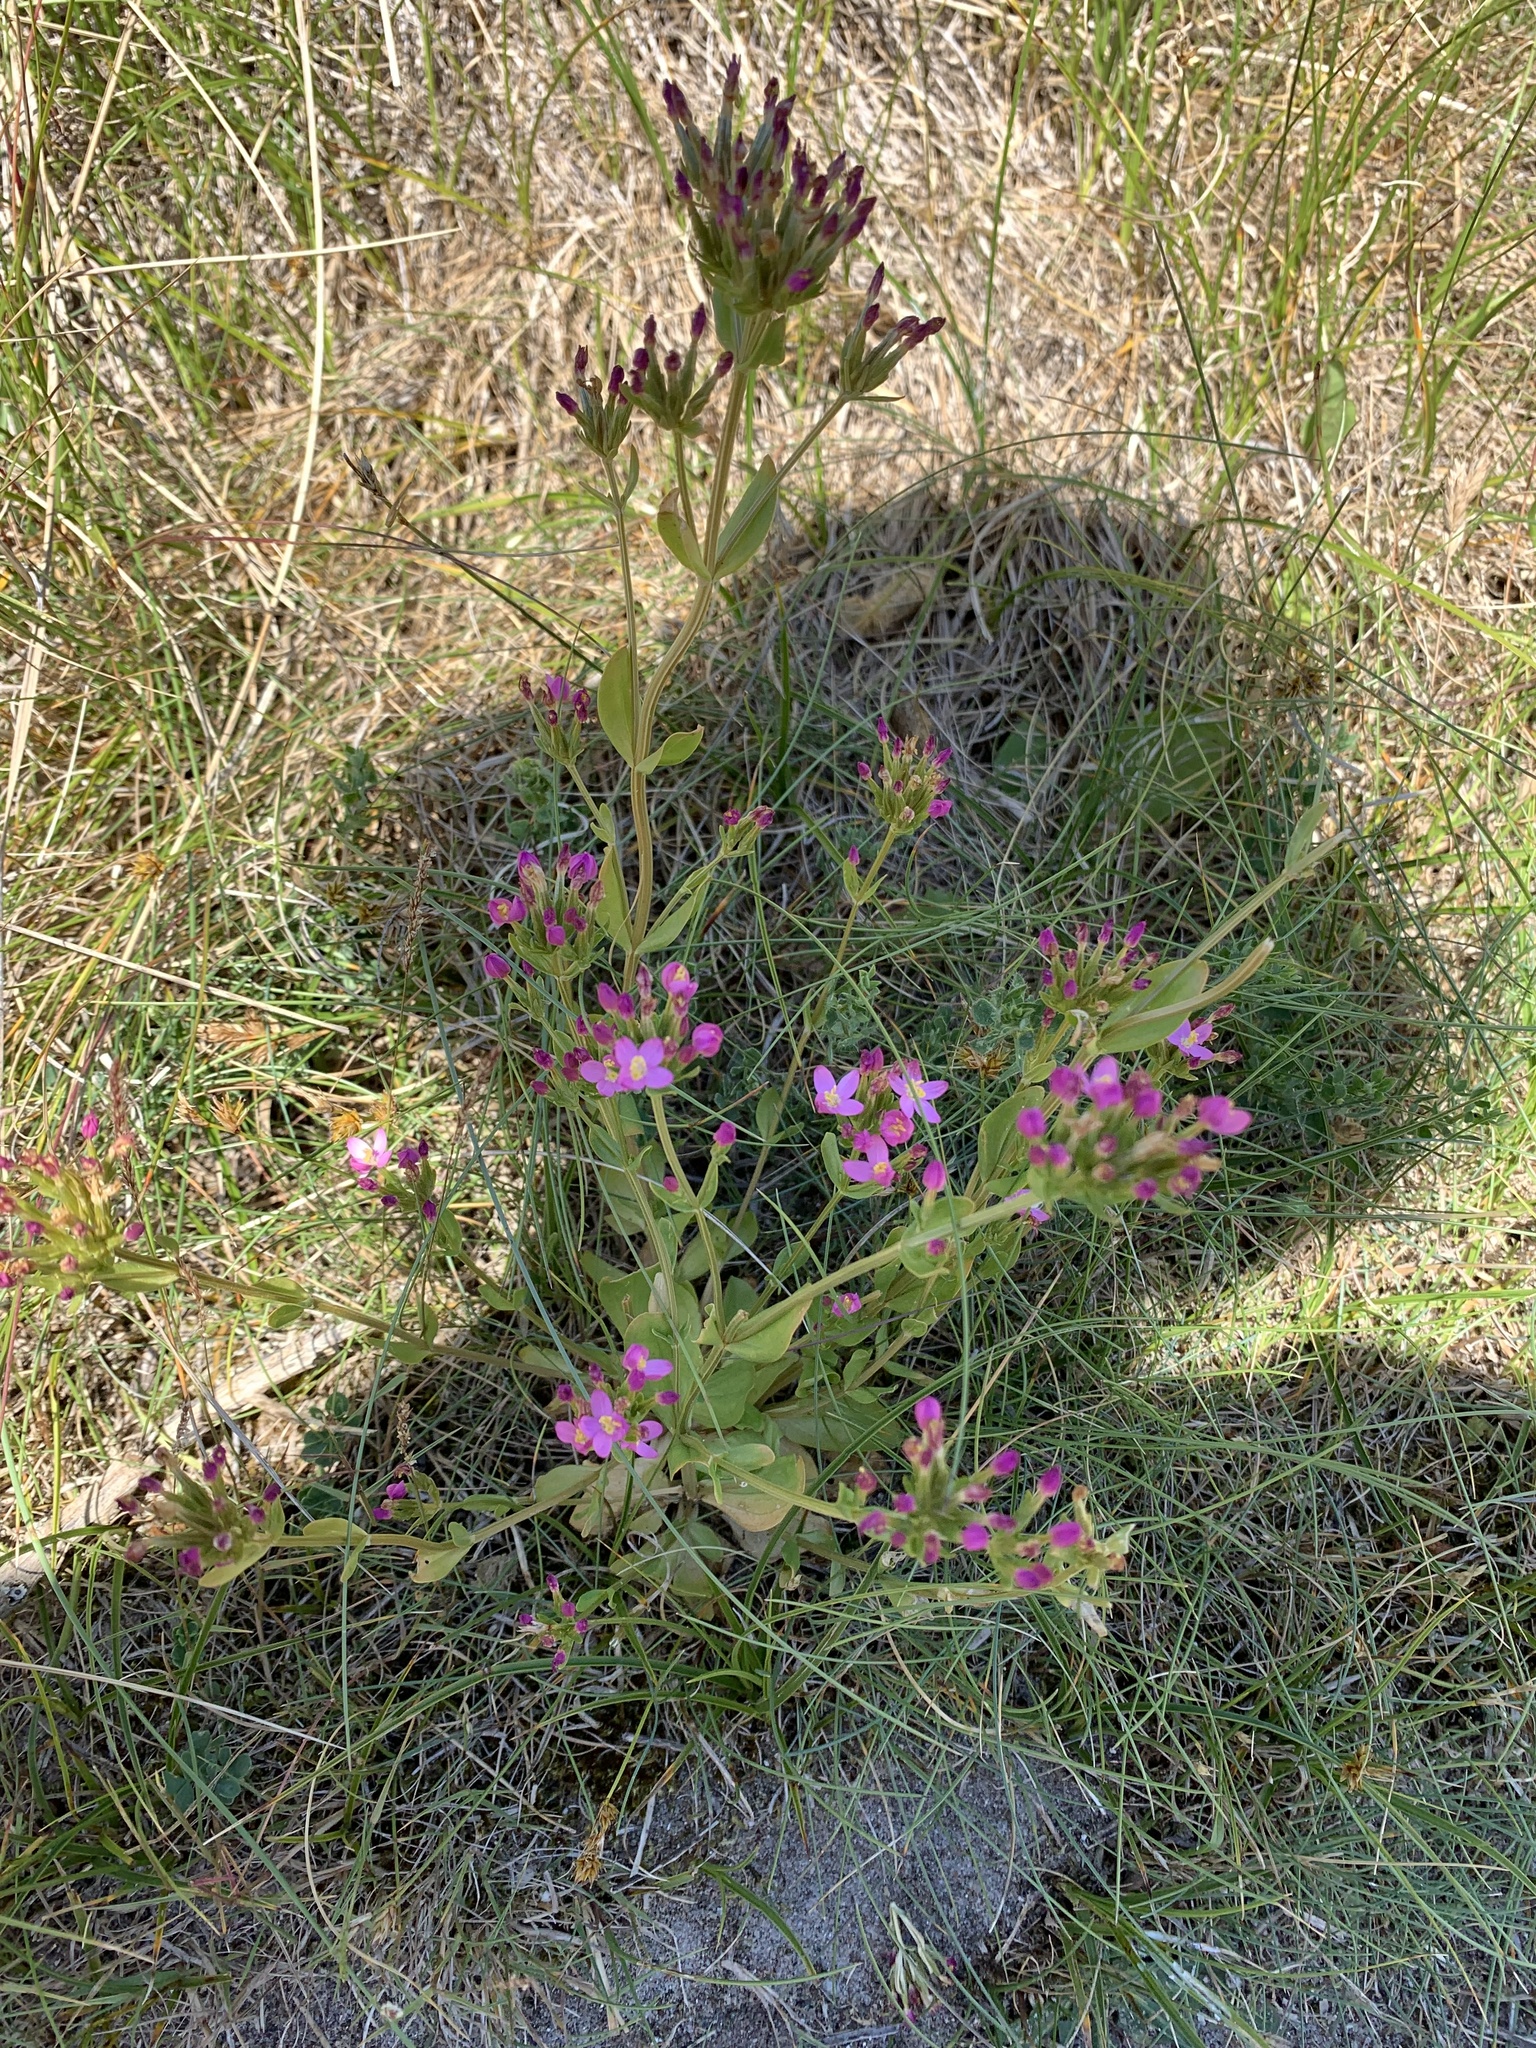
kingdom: Plantae
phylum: Tracheophyta
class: Magnoliopsida
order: Gentianales
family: Gentianaceae
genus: Centaurium
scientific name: Centaurium littorale
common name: Seaside centaury
